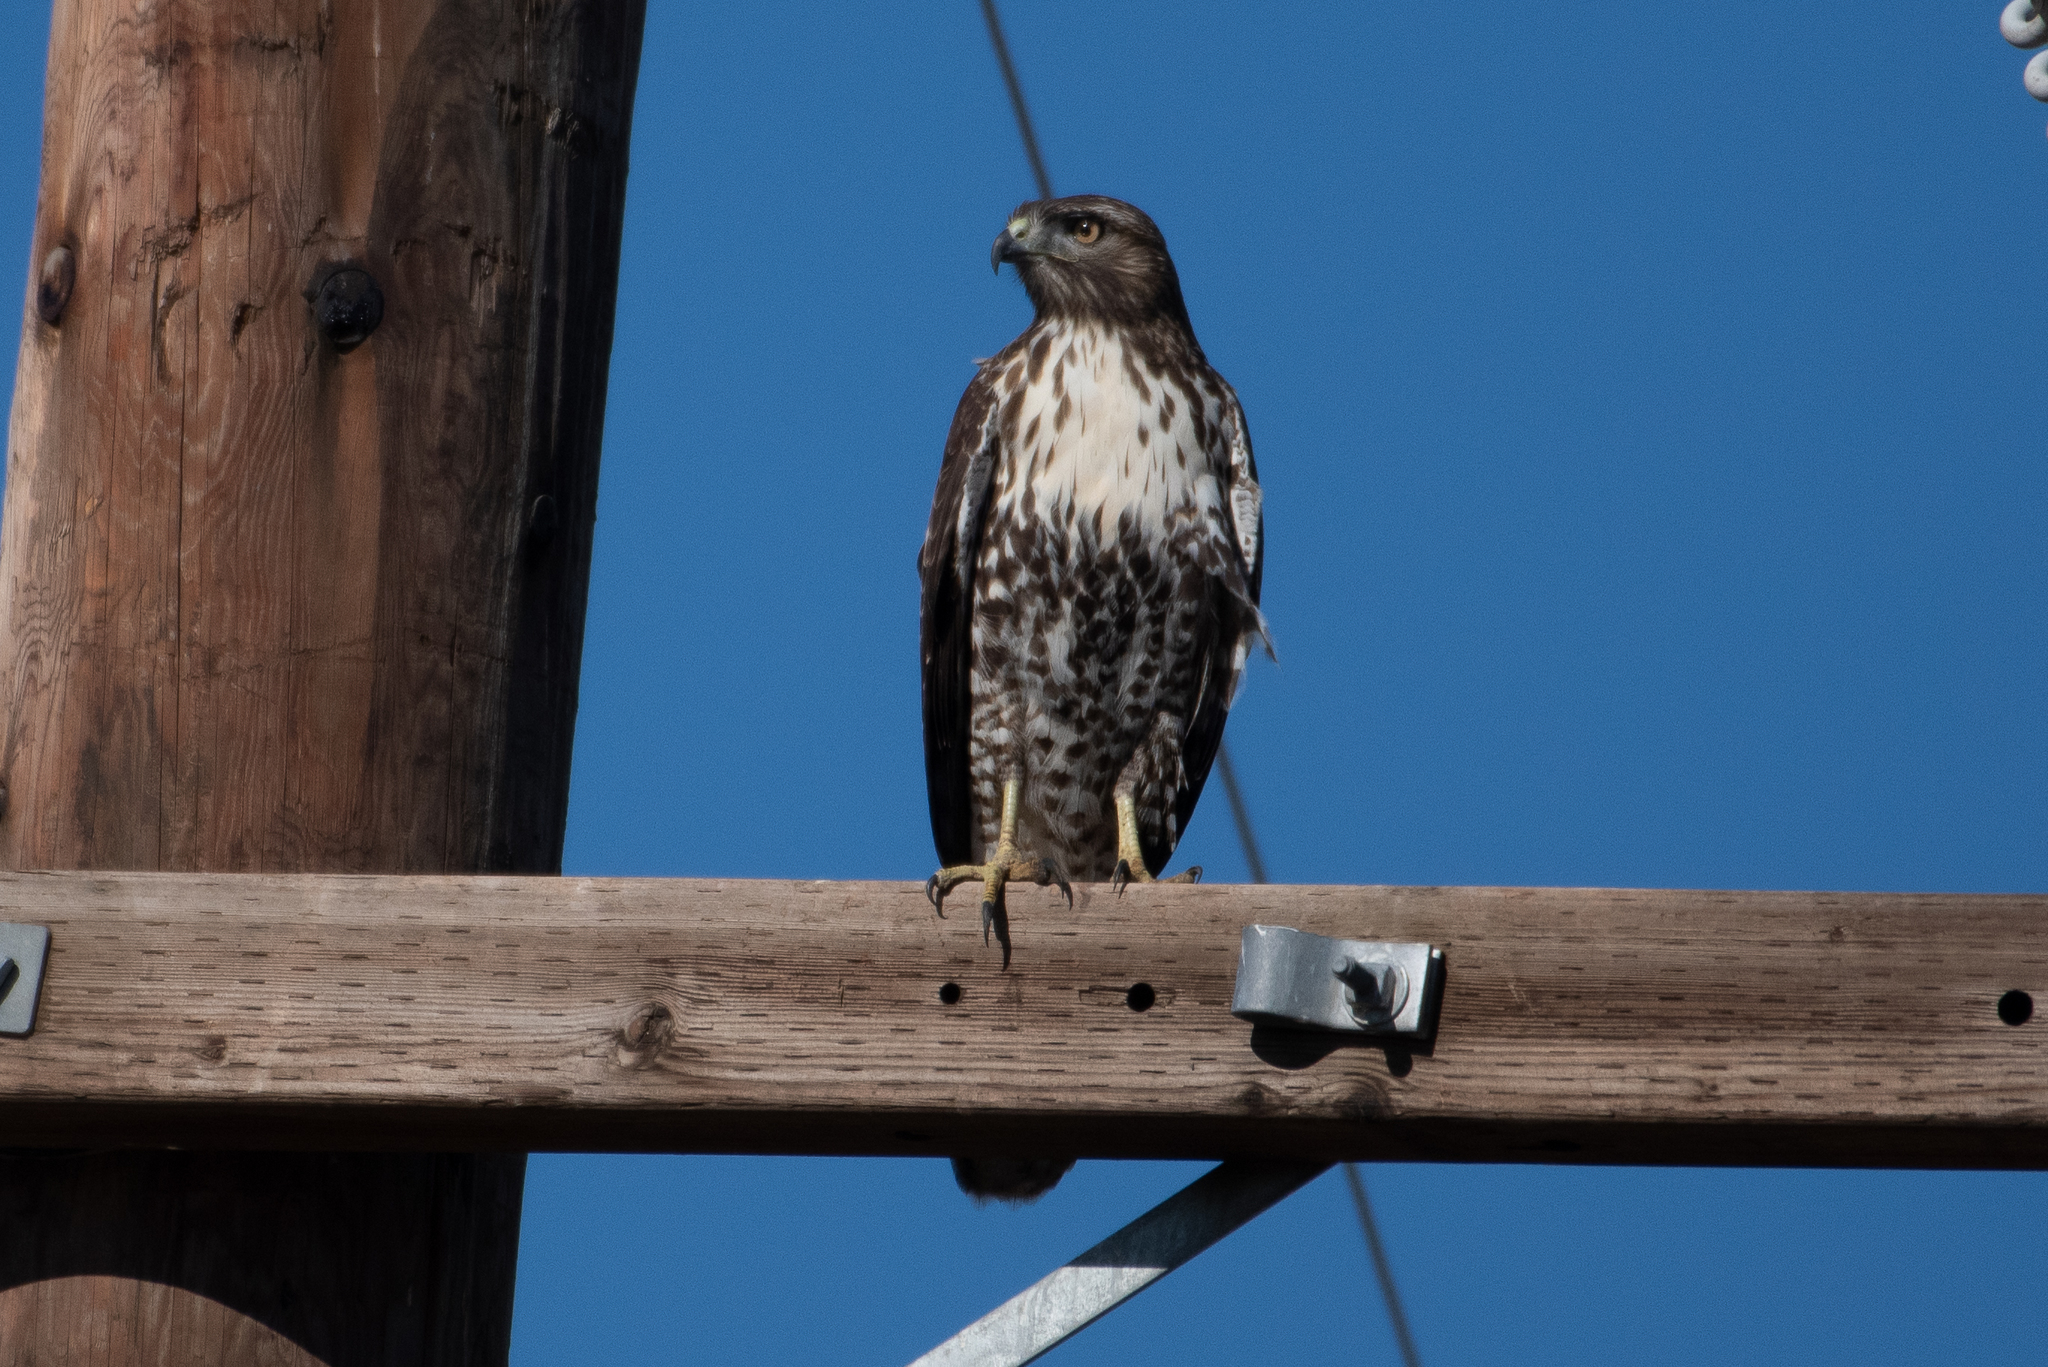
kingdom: Animalia
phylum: Chordata
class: Aves
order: Accipitriformes
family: Accipitridae
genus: Buteo
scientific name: Buteo jamaicensis
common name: Red-tailed hawk
